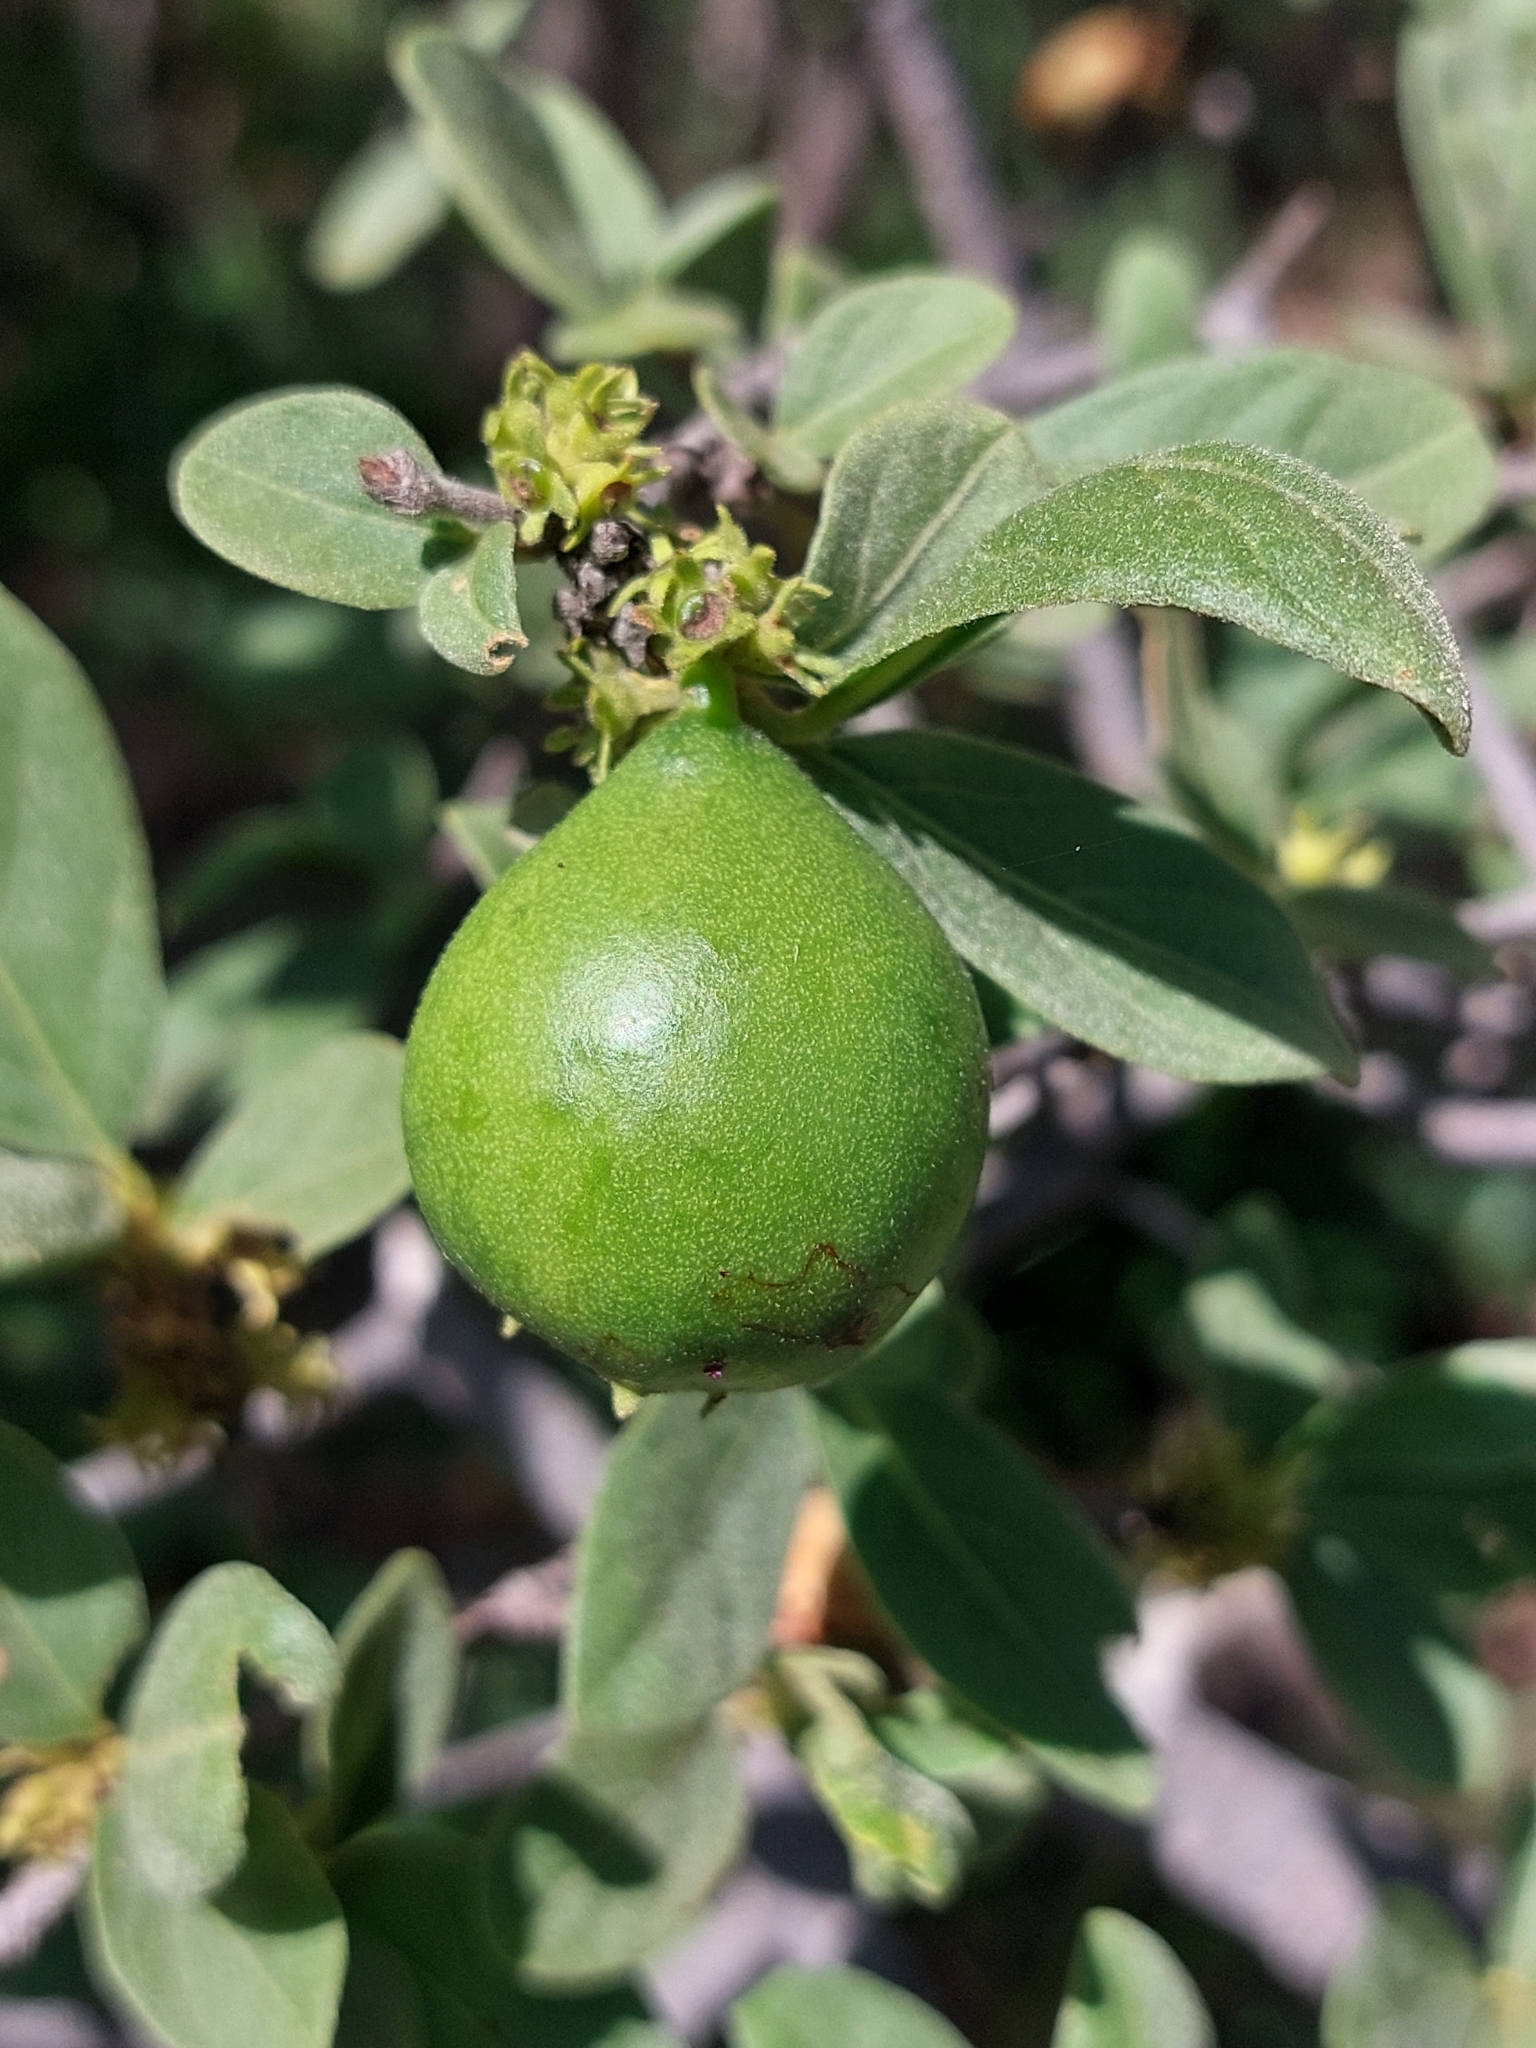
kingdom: Plantae
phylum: Tracheophyta
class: Magnoliopsida
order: Gentianales
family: Rubiaceae
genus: Vangueria
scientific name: Vangueria parvifolia
